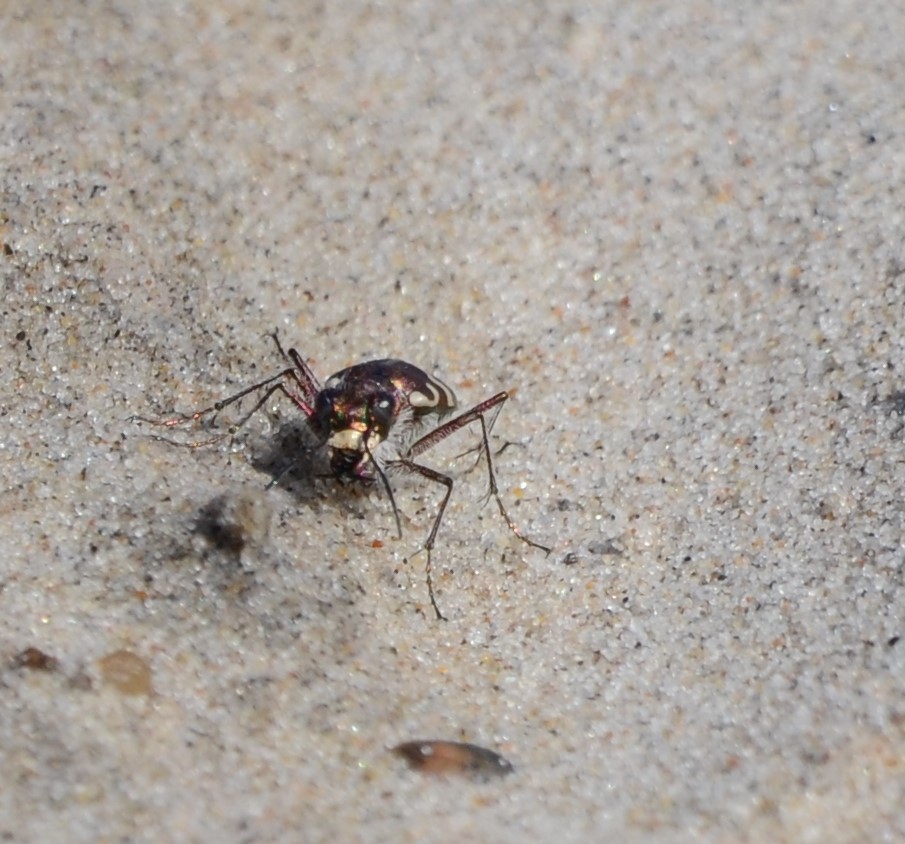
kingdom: Animalia
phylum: Arthropoda
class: Insecta
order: Coleoptera
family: Carabidae
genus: Cicindela
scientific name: Cicindela maritima
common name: Dune tiger beetle
